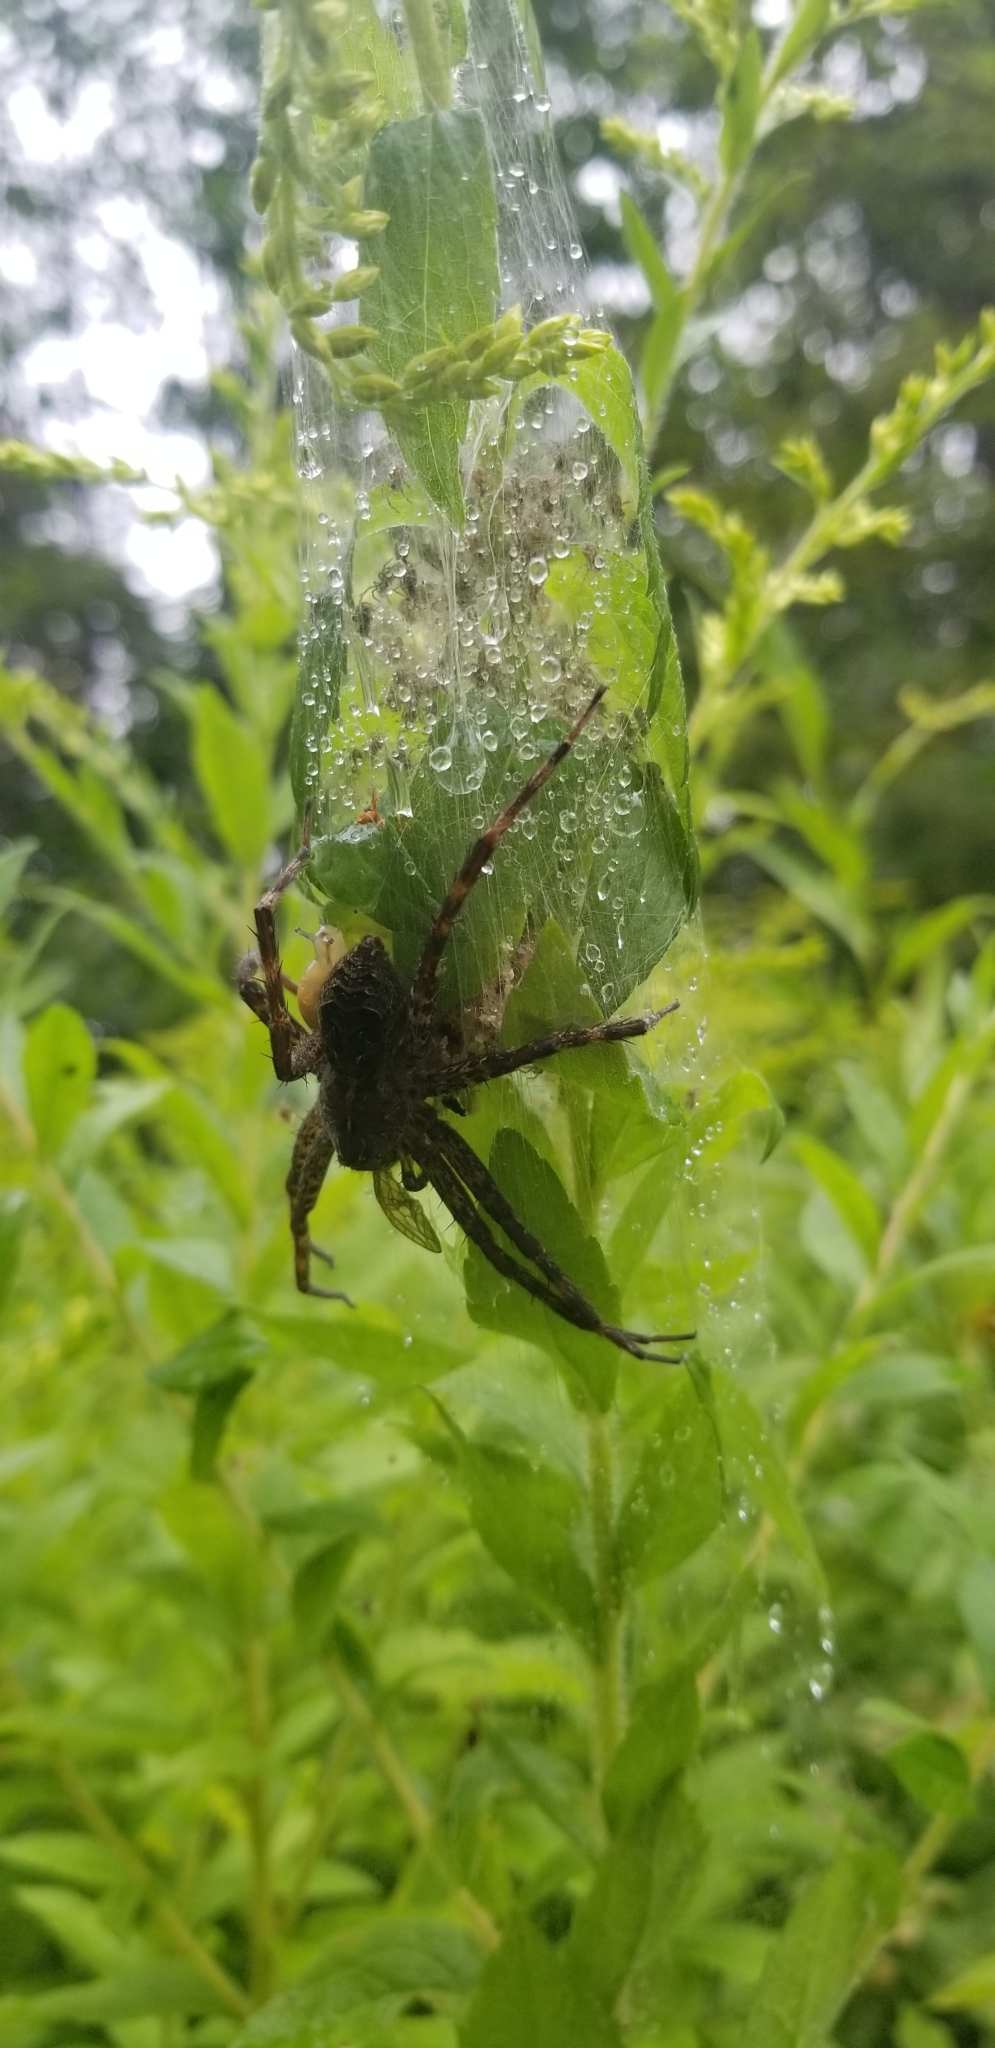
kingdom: Animalia
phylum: Arthropoda
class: Arachnida
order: Araneae
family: Pisauridae
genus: Dolomedes
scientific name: Dolomedes scriptus
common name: Striped fishing spider
